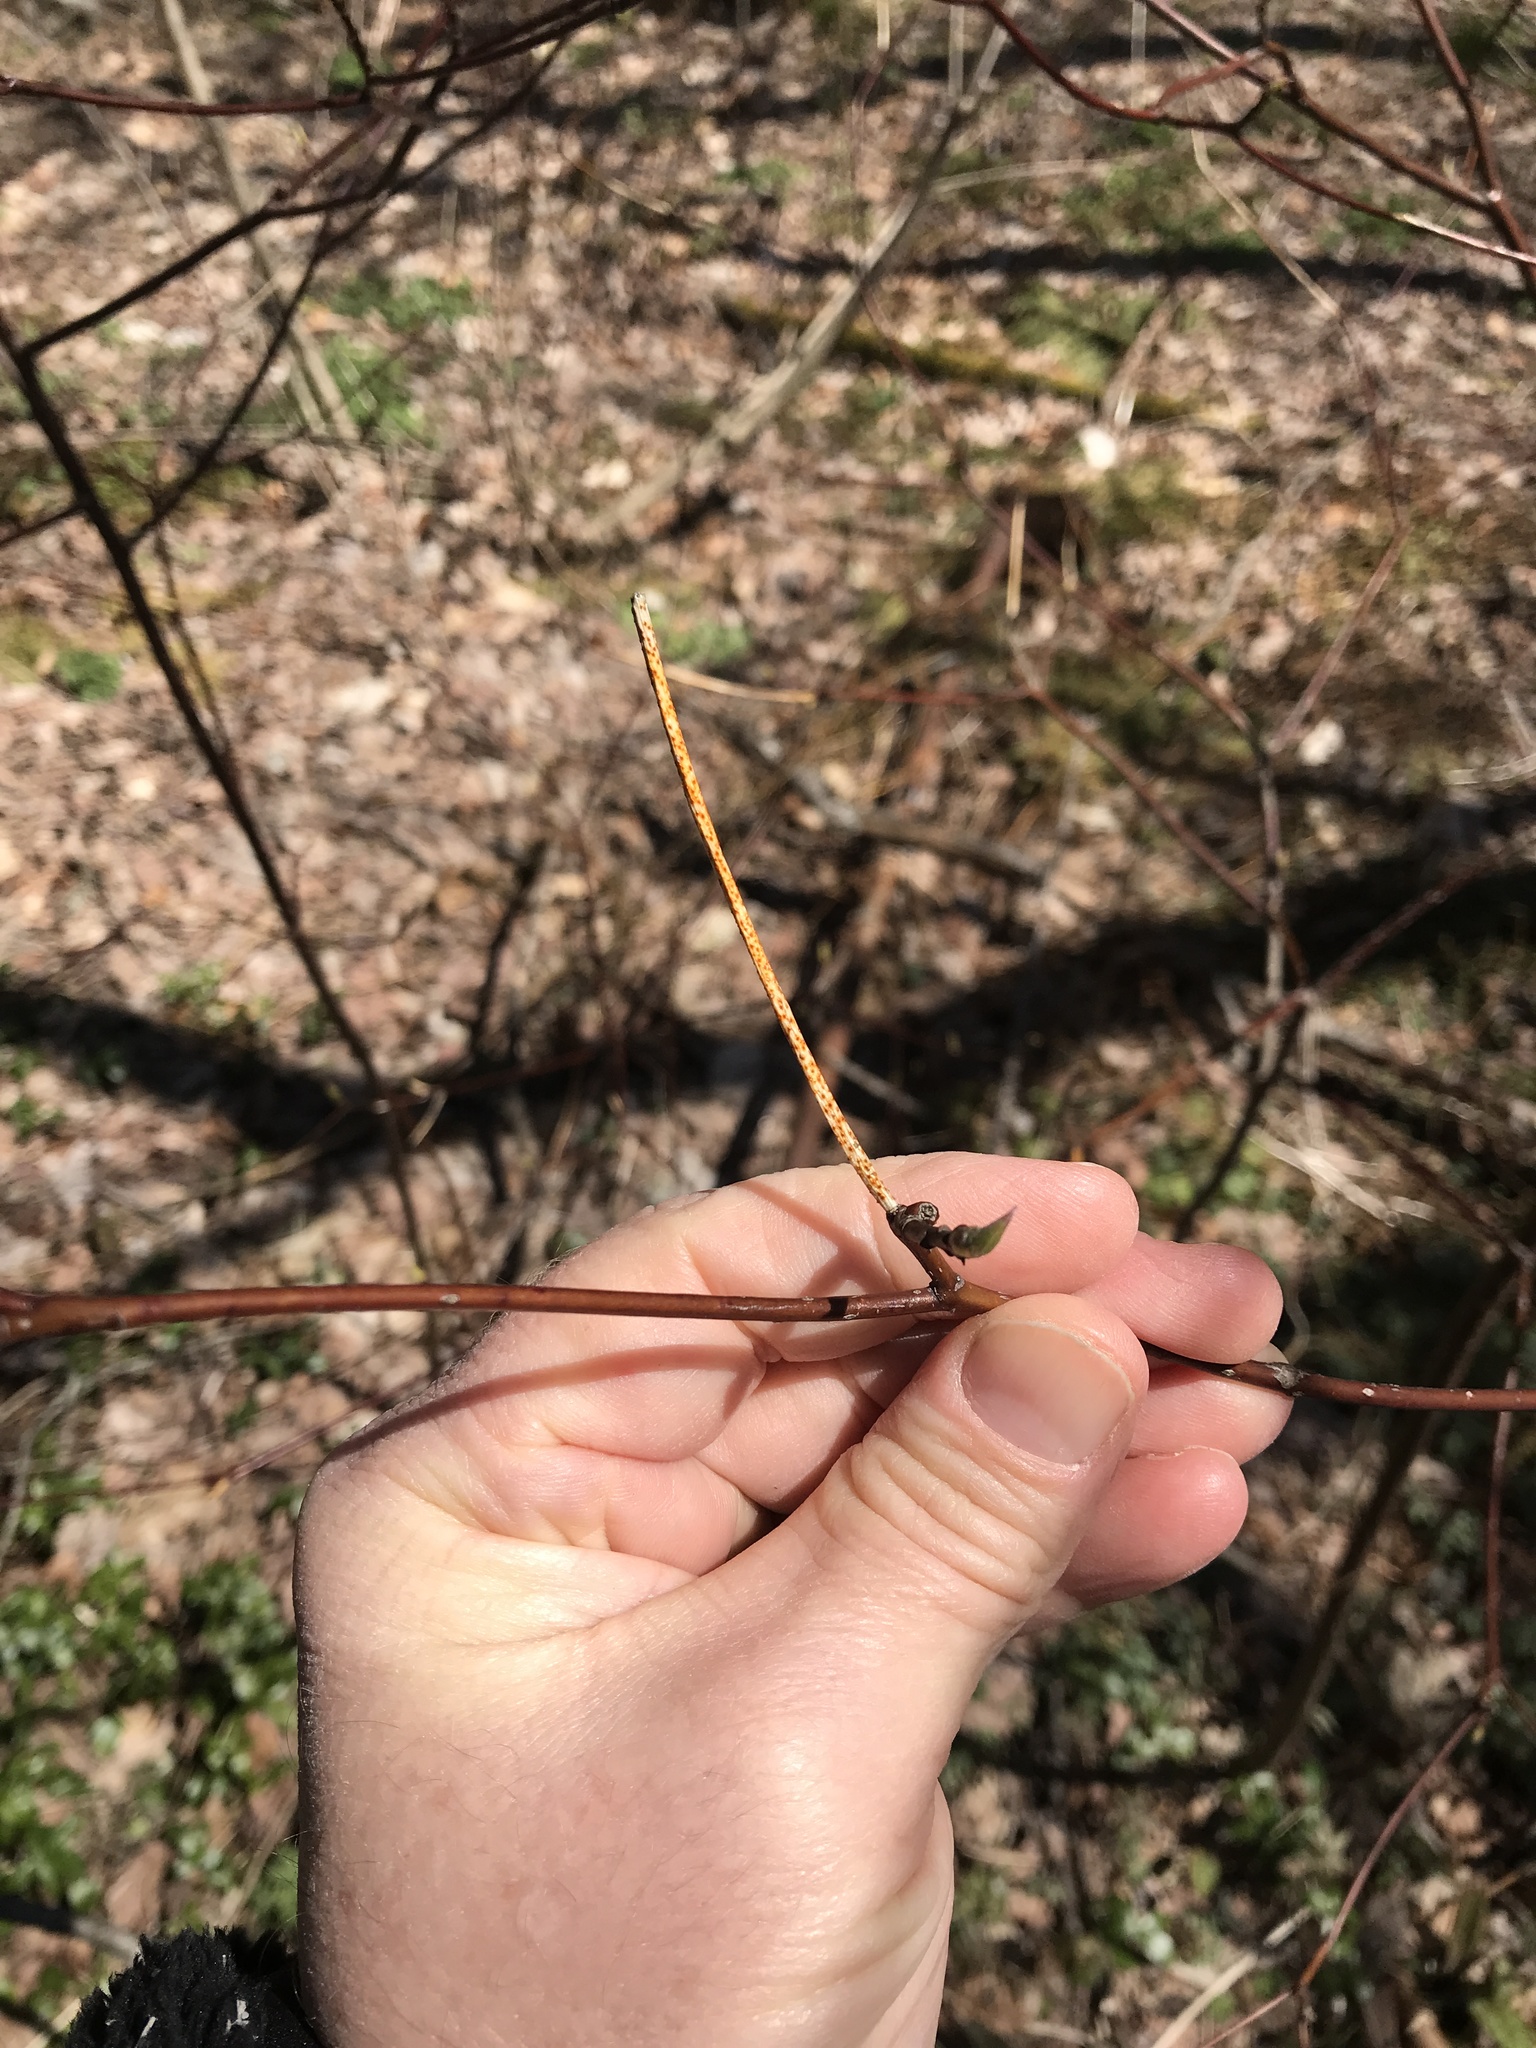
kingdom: Fungi
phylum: Ascomycota
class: Sordariomycetes
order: Diaporthales
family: Cryphonectriaceae
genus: Aurantioporthe
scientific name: Aurantioporthe corni
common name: Dogwood golden canker
